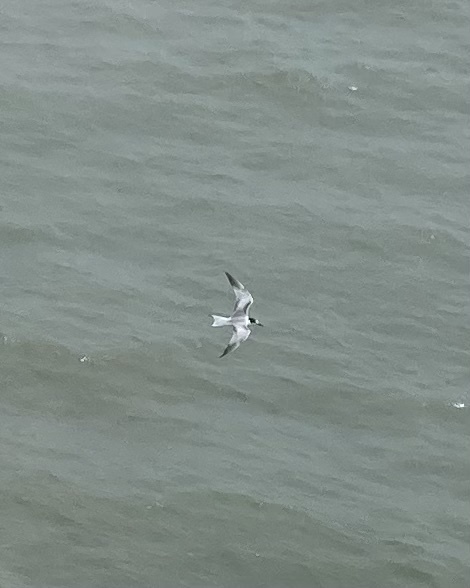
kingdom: Animalia
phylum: Chordata
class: Aves
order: Charadriiformes
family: Laridae
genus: Sterna
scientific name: Sterna hirundo
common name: Common tern
